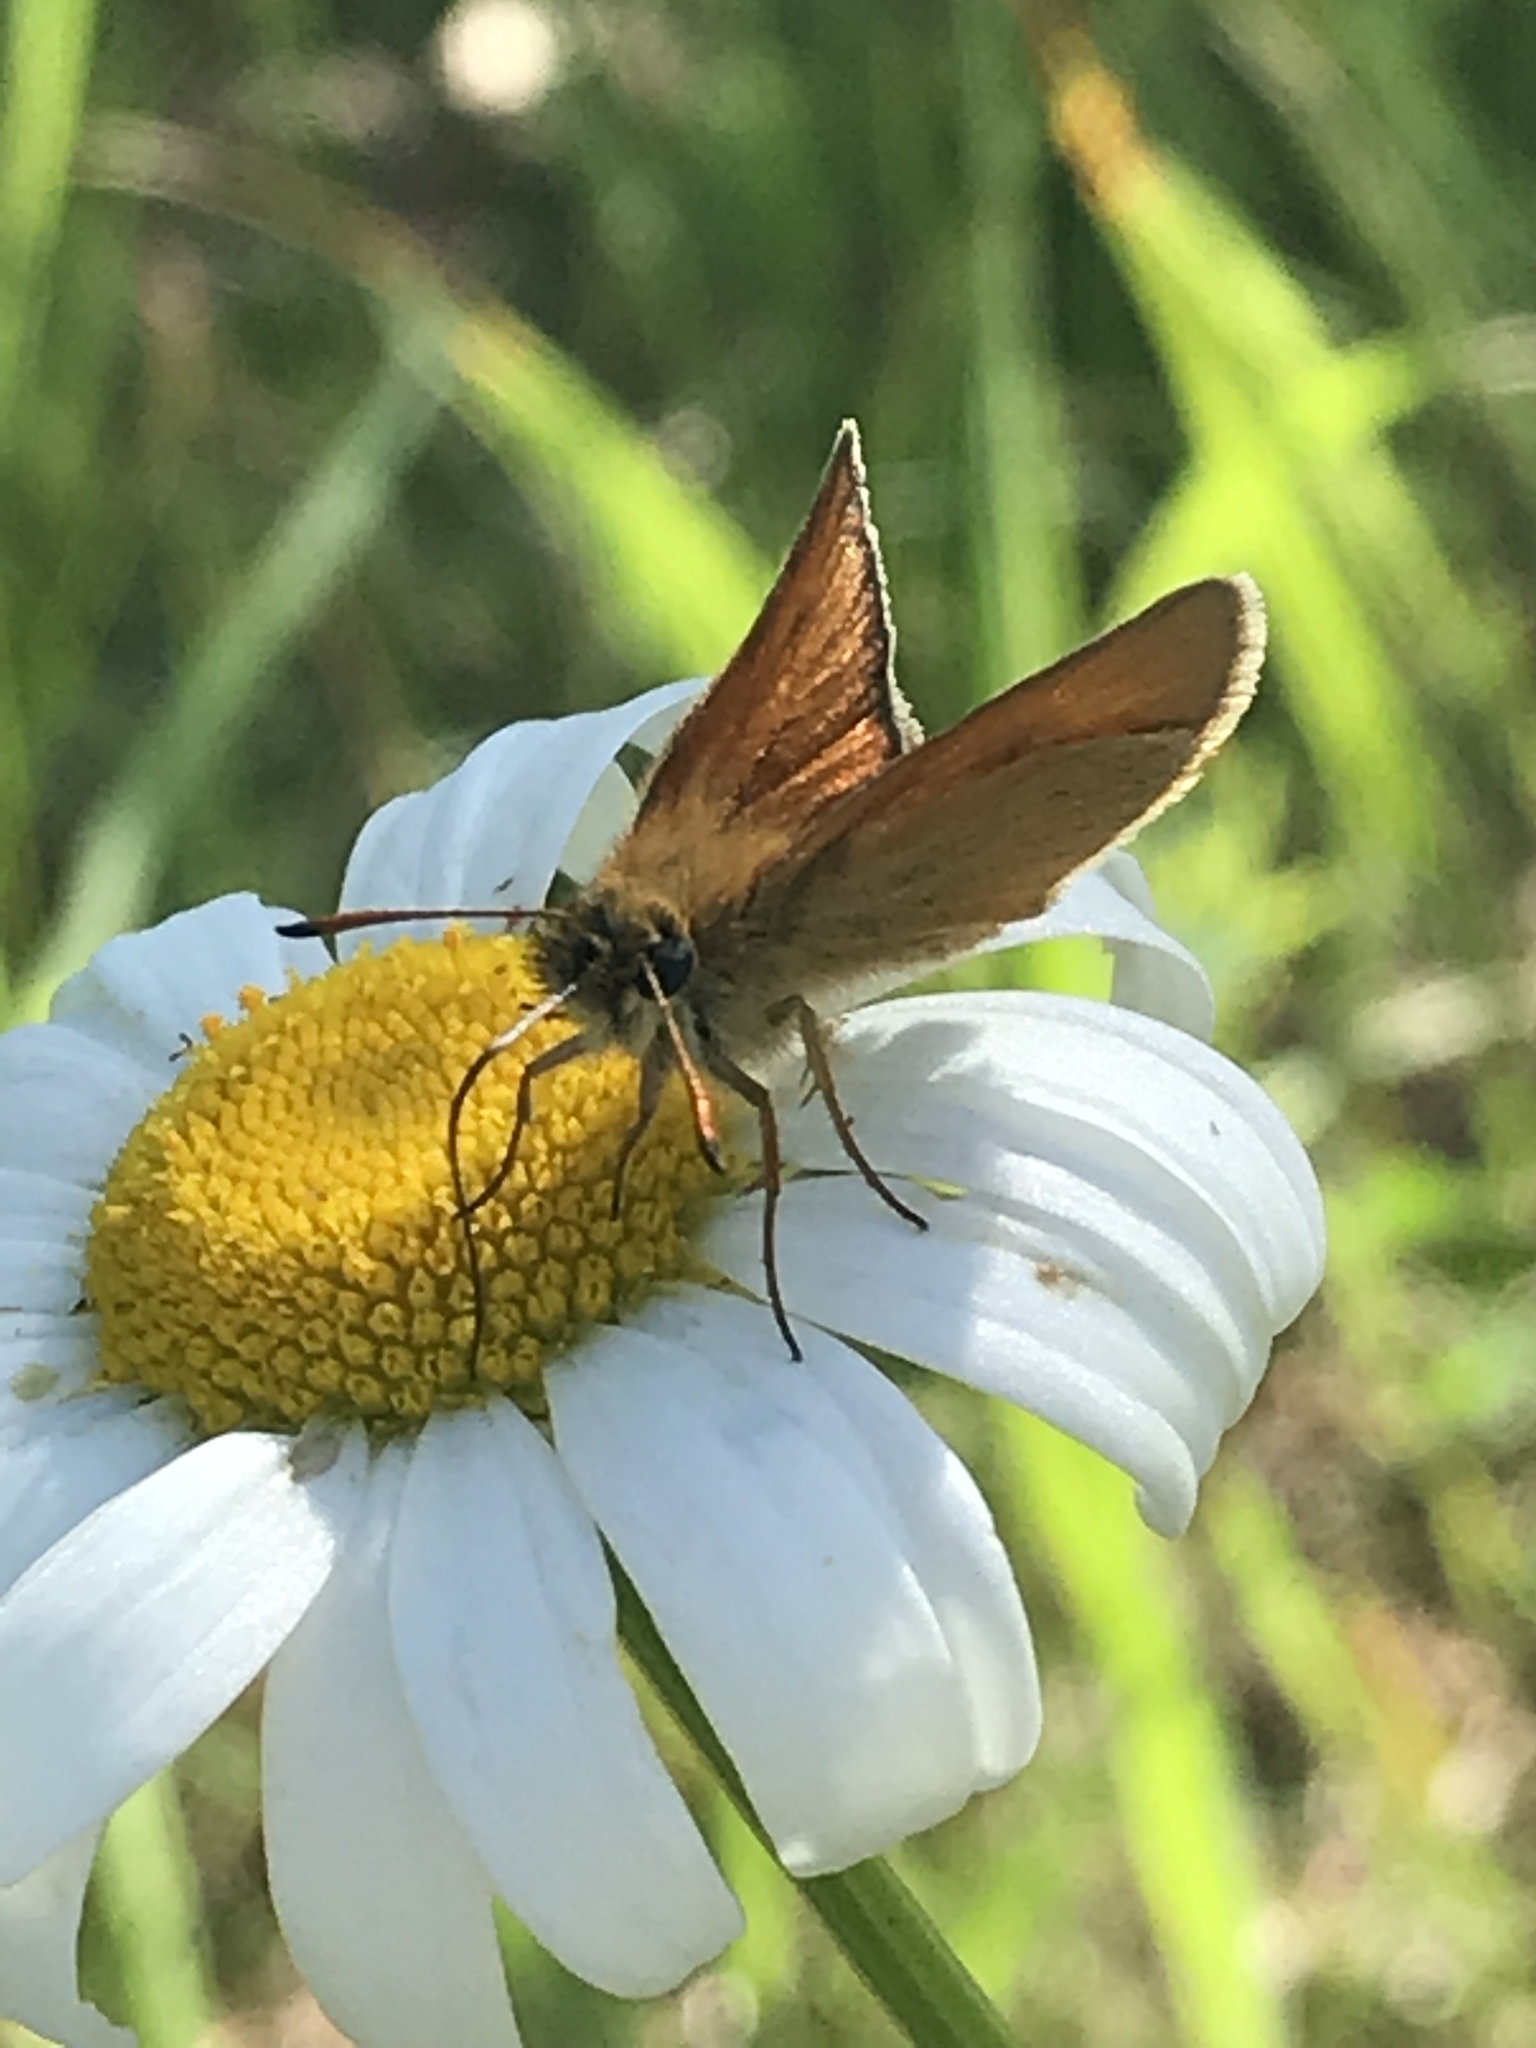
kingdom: Animalia
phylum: Arthropoda
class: Insecta
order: Lepidoptera
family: Hesperiidae
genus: Thymelicus
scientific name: Thymelicus lineola
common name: Essex skipper
